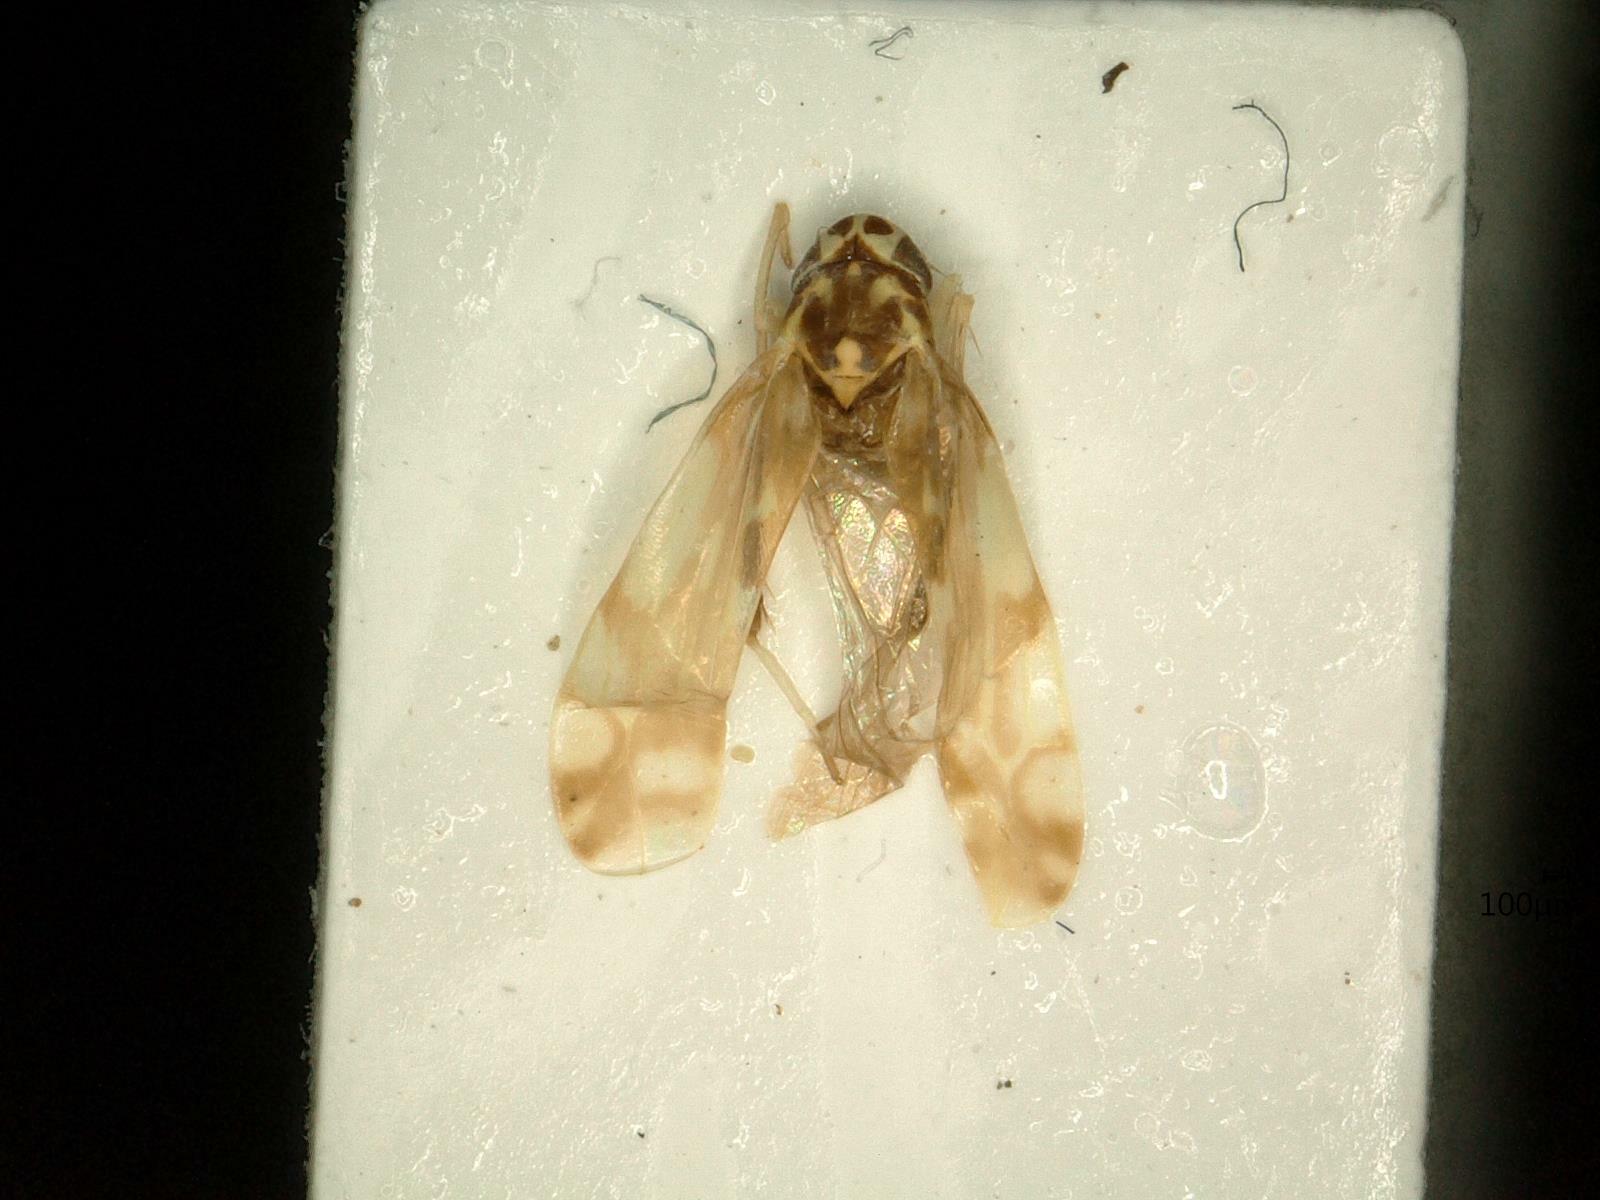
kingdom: Animalia
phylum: Arthropoda
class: Insecta
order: Hemiptera
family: Cicadellidae
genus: Eupteryx
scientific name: Eupteryx urticae
